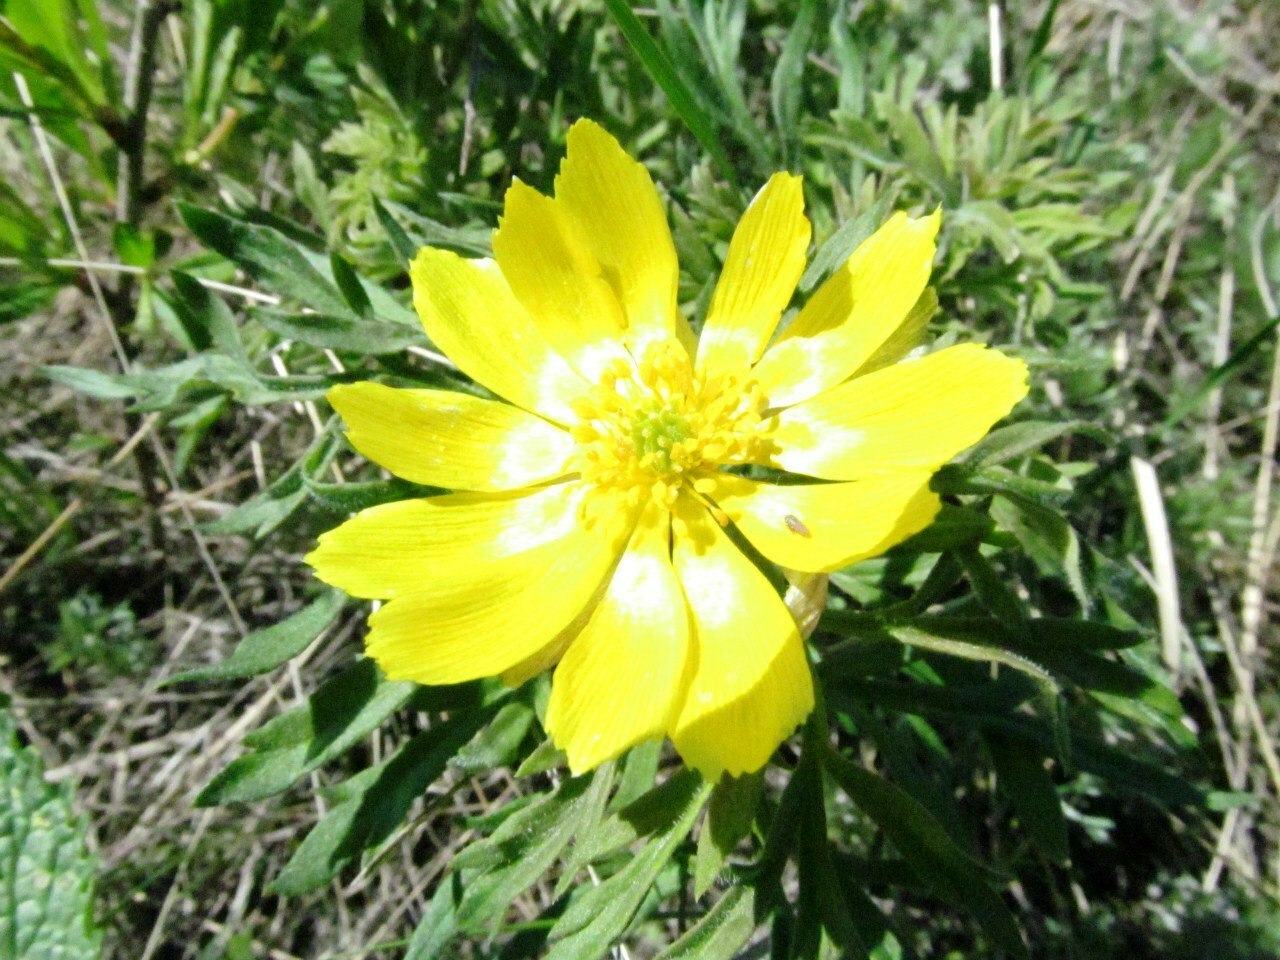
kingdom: Plantae
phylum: Tracheophyta
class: Magnoliopsida
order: Ranunculales
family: Ranunculaceae
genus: Adonis
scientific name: Adonis volgensis
